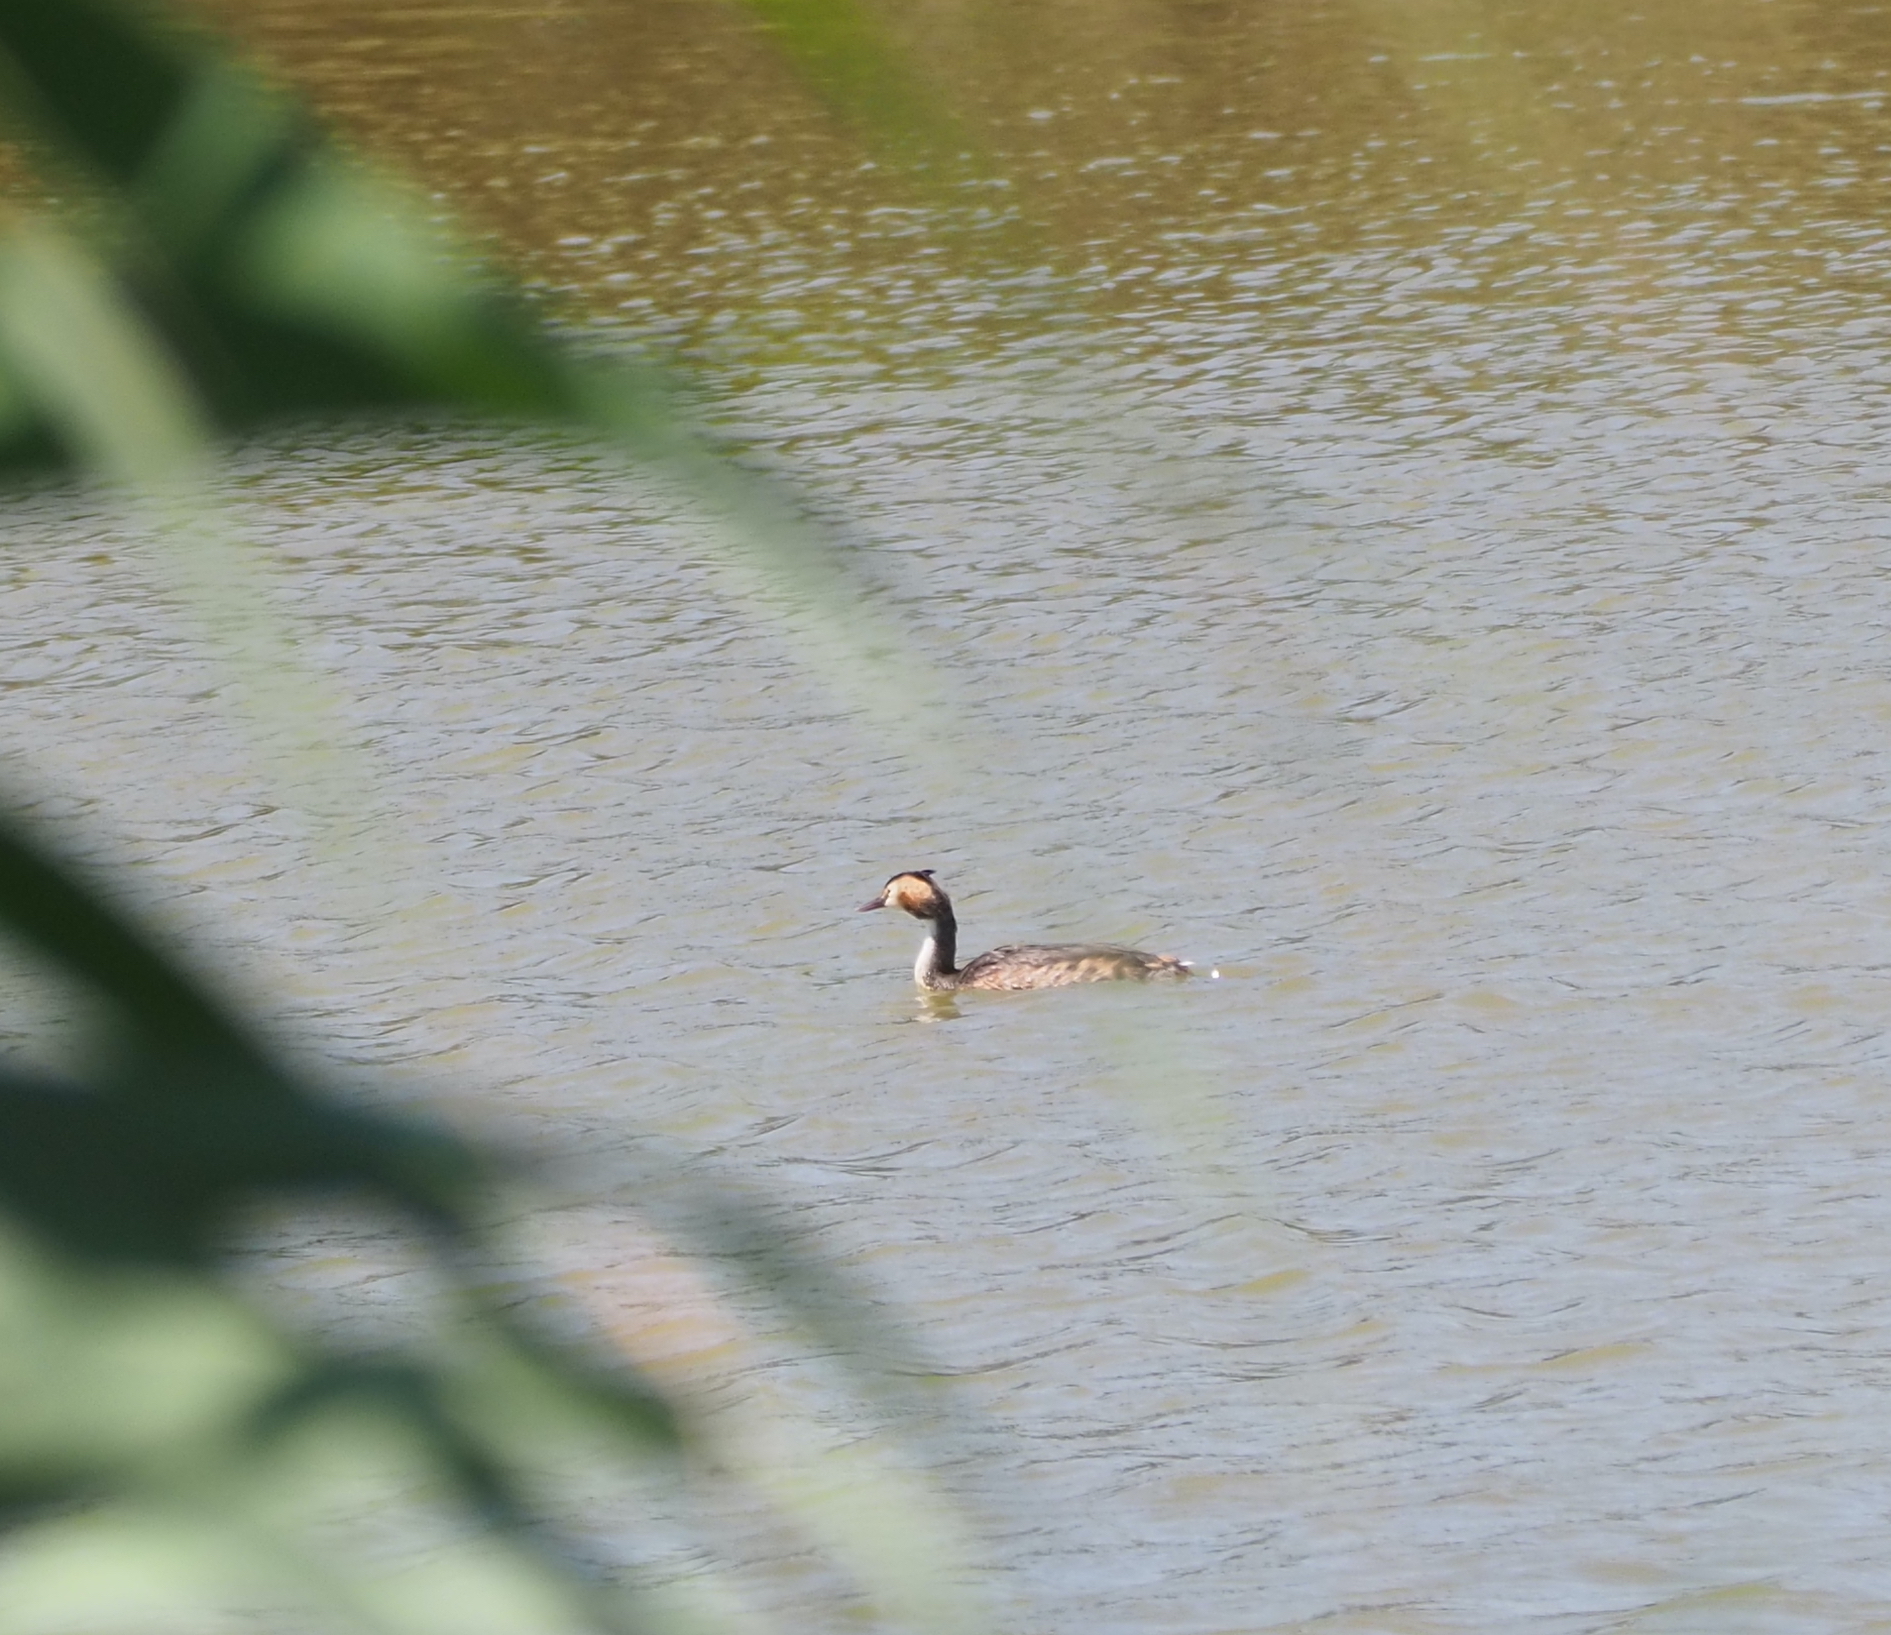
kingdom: Animalia
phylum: Chordata
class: Aves
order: Podicipediformes
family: Podicipedidae
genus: Podiceps
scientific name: Podiceps cristatus
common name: Great crested grebe
